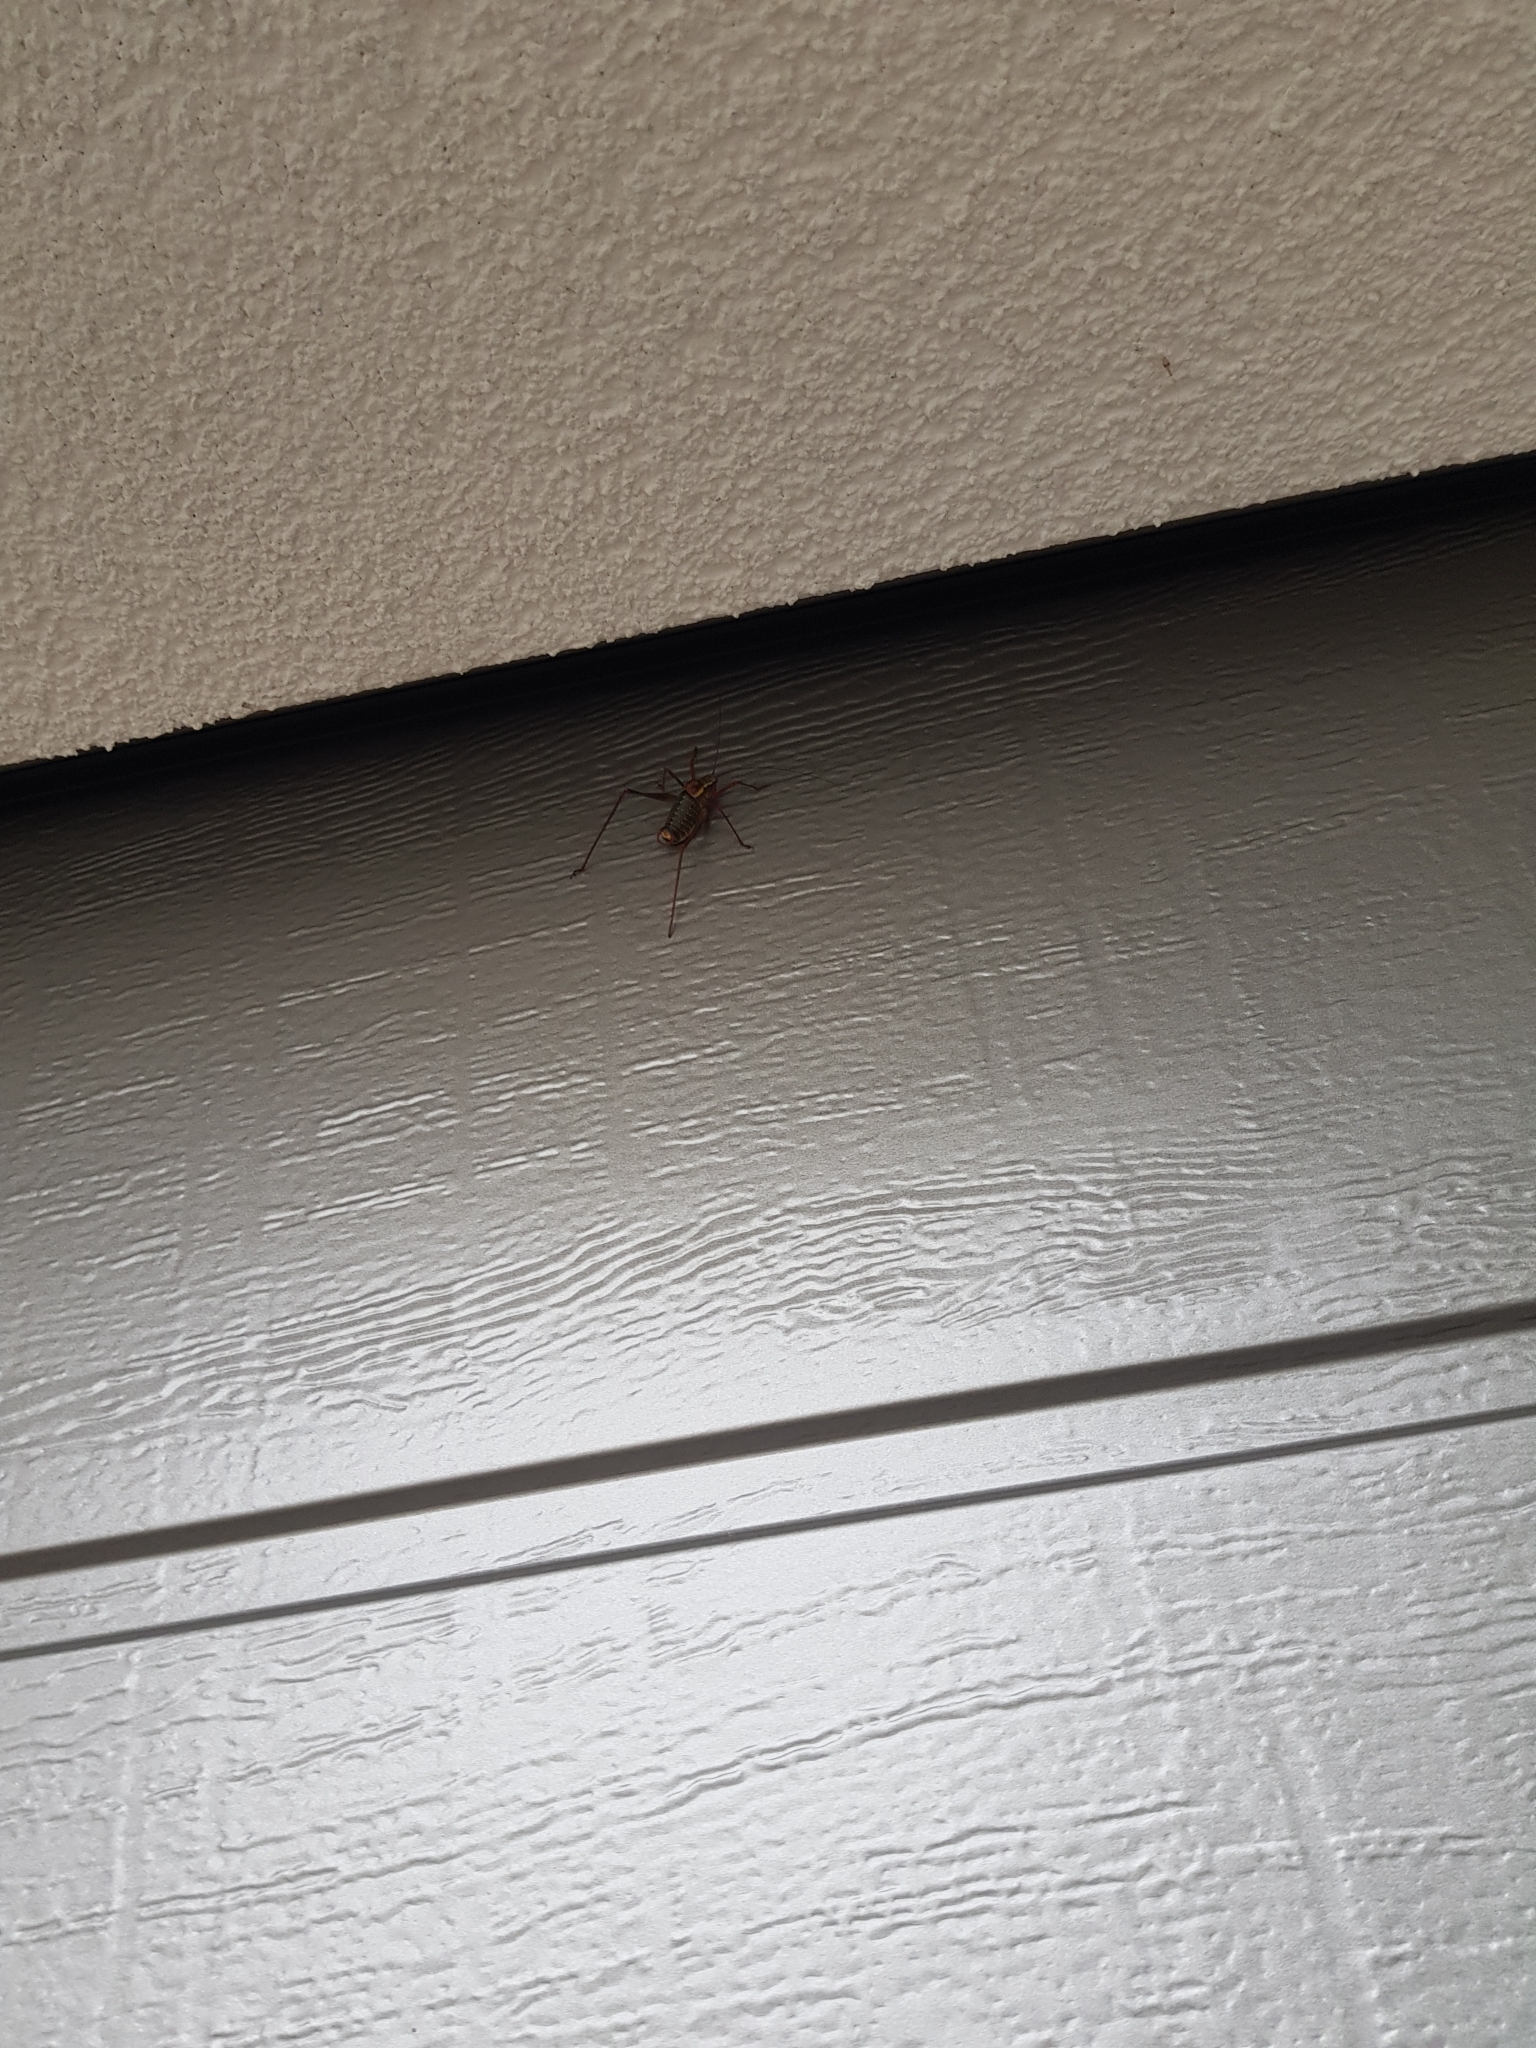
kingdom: Animalia
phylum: Arthropoda
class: Insecta
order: Orthoptera
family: Tettigoniidae
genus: Barbitistes
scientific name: Barbitistes serricauda
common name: Saw-tailed bush-cricket
